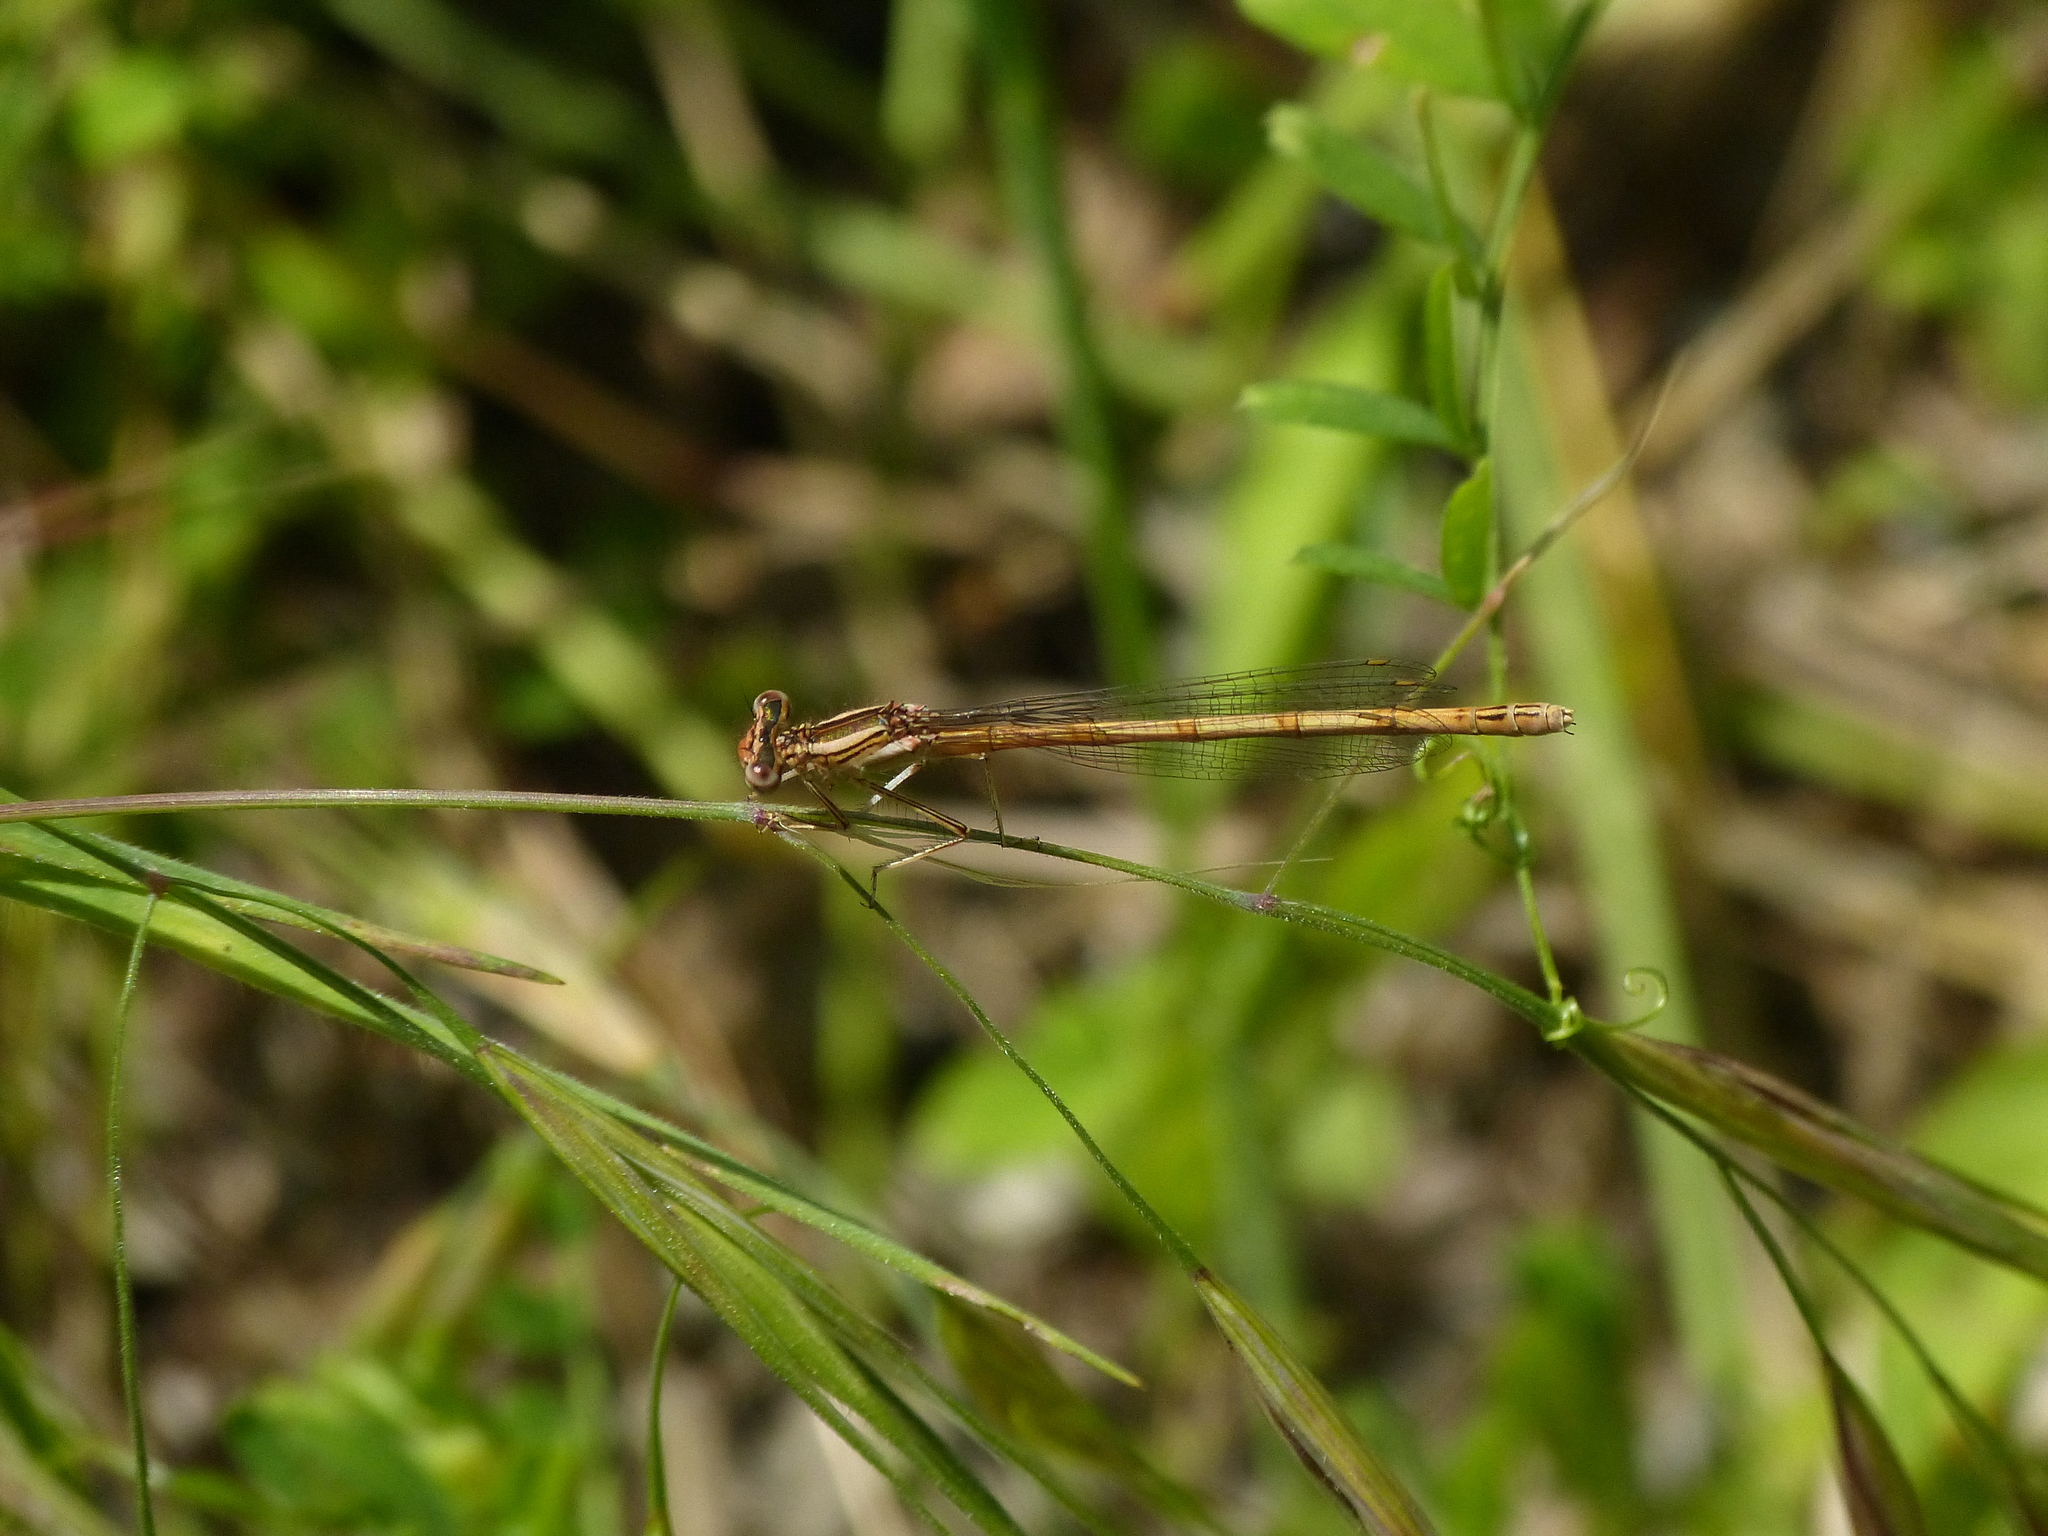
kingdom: Animalia
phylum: Arthropoda
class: Insecta
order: Odonata
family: Platycnemididae
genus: Platycnemis
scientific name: Platycnemis acutipennis
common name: Orange featherleg
